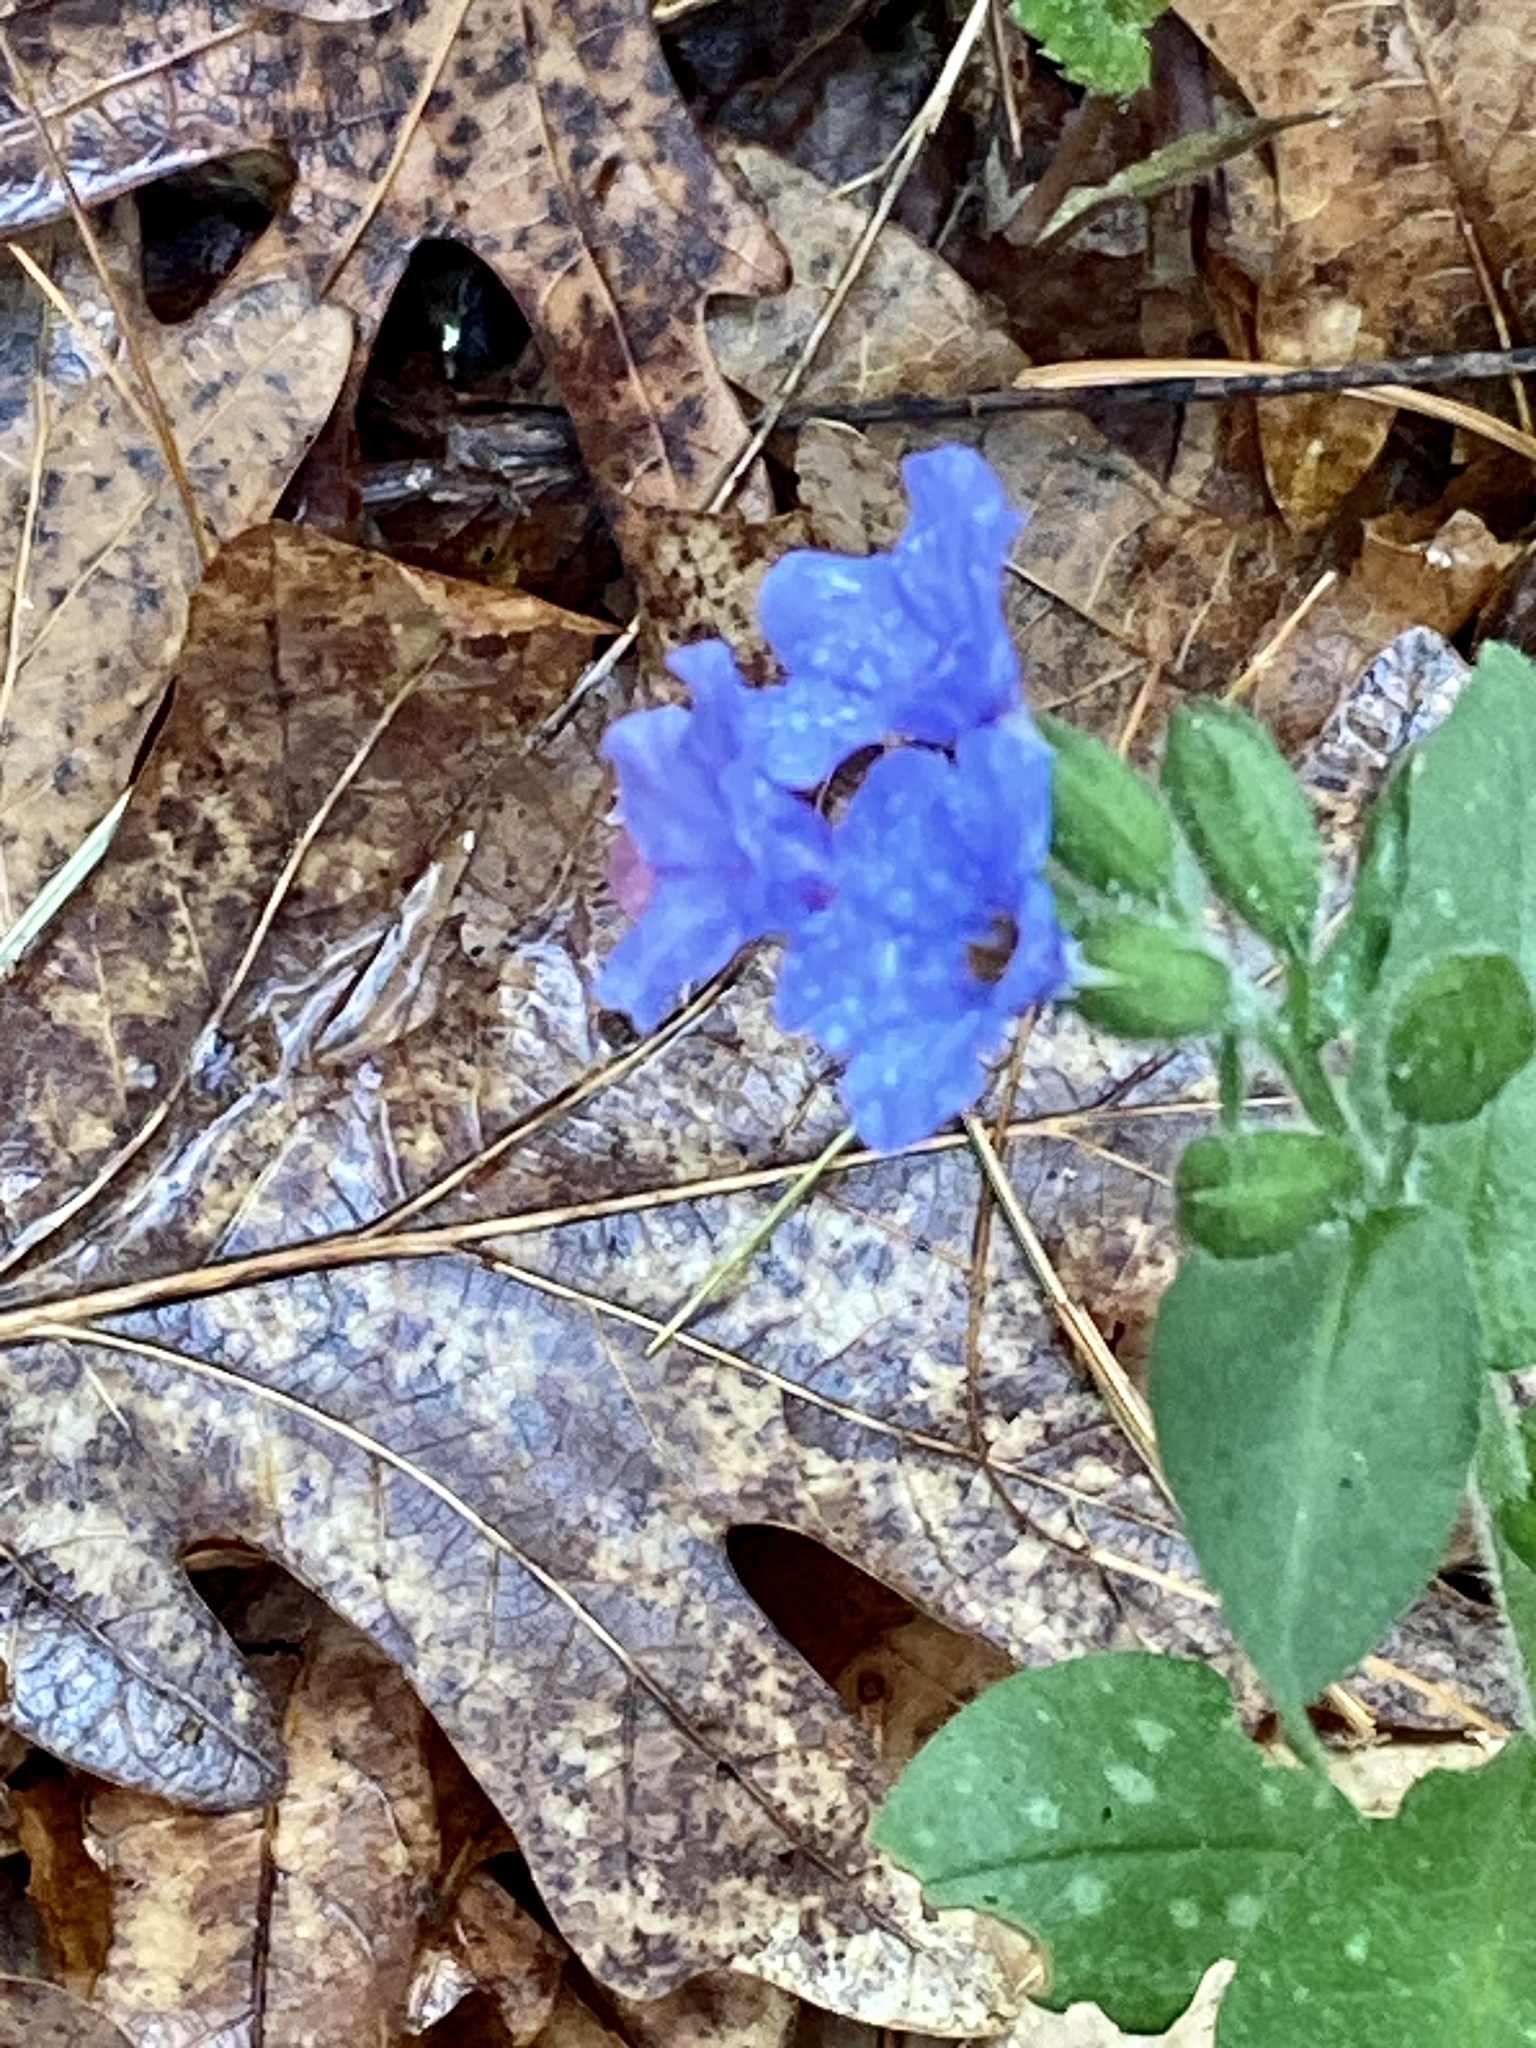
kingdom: Plantae
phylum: Tracheophyta
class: Magnoliopsida
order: Boraginales
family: Boraginaceae
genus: Pulmonaria
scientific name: Pulmonaria officinalis
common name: Lungwort
